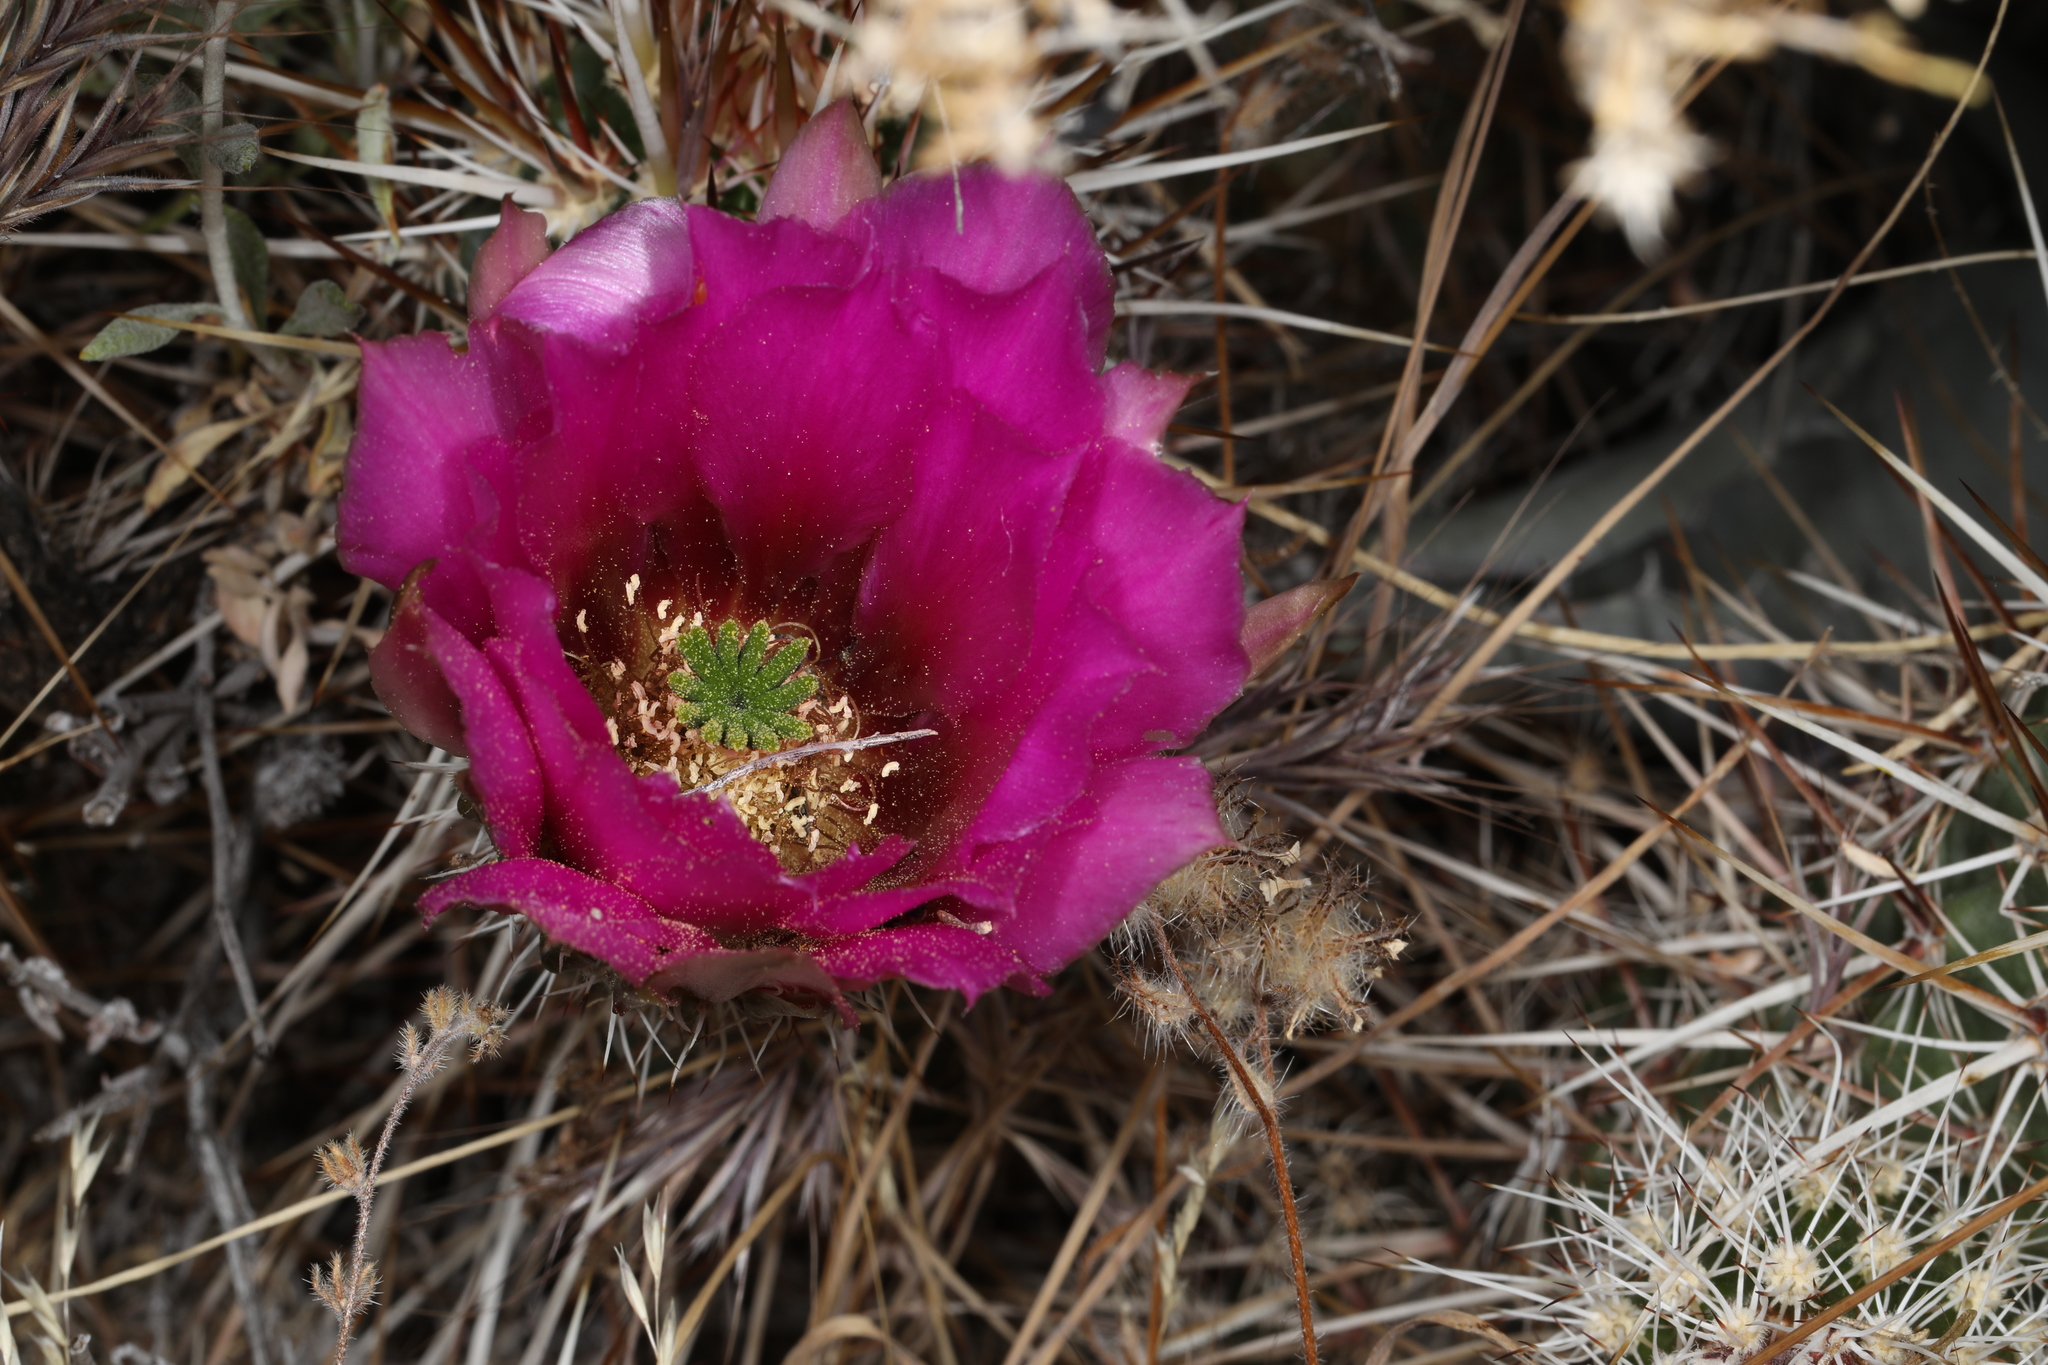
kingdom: Plantae
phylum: Tracheophyta
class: Magnoliopsida
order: Caryophyllales
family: Cactaceae
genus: Echinocereus
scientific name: Echinocereus engelmannii
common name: Engelmann's hedgehog cactus
